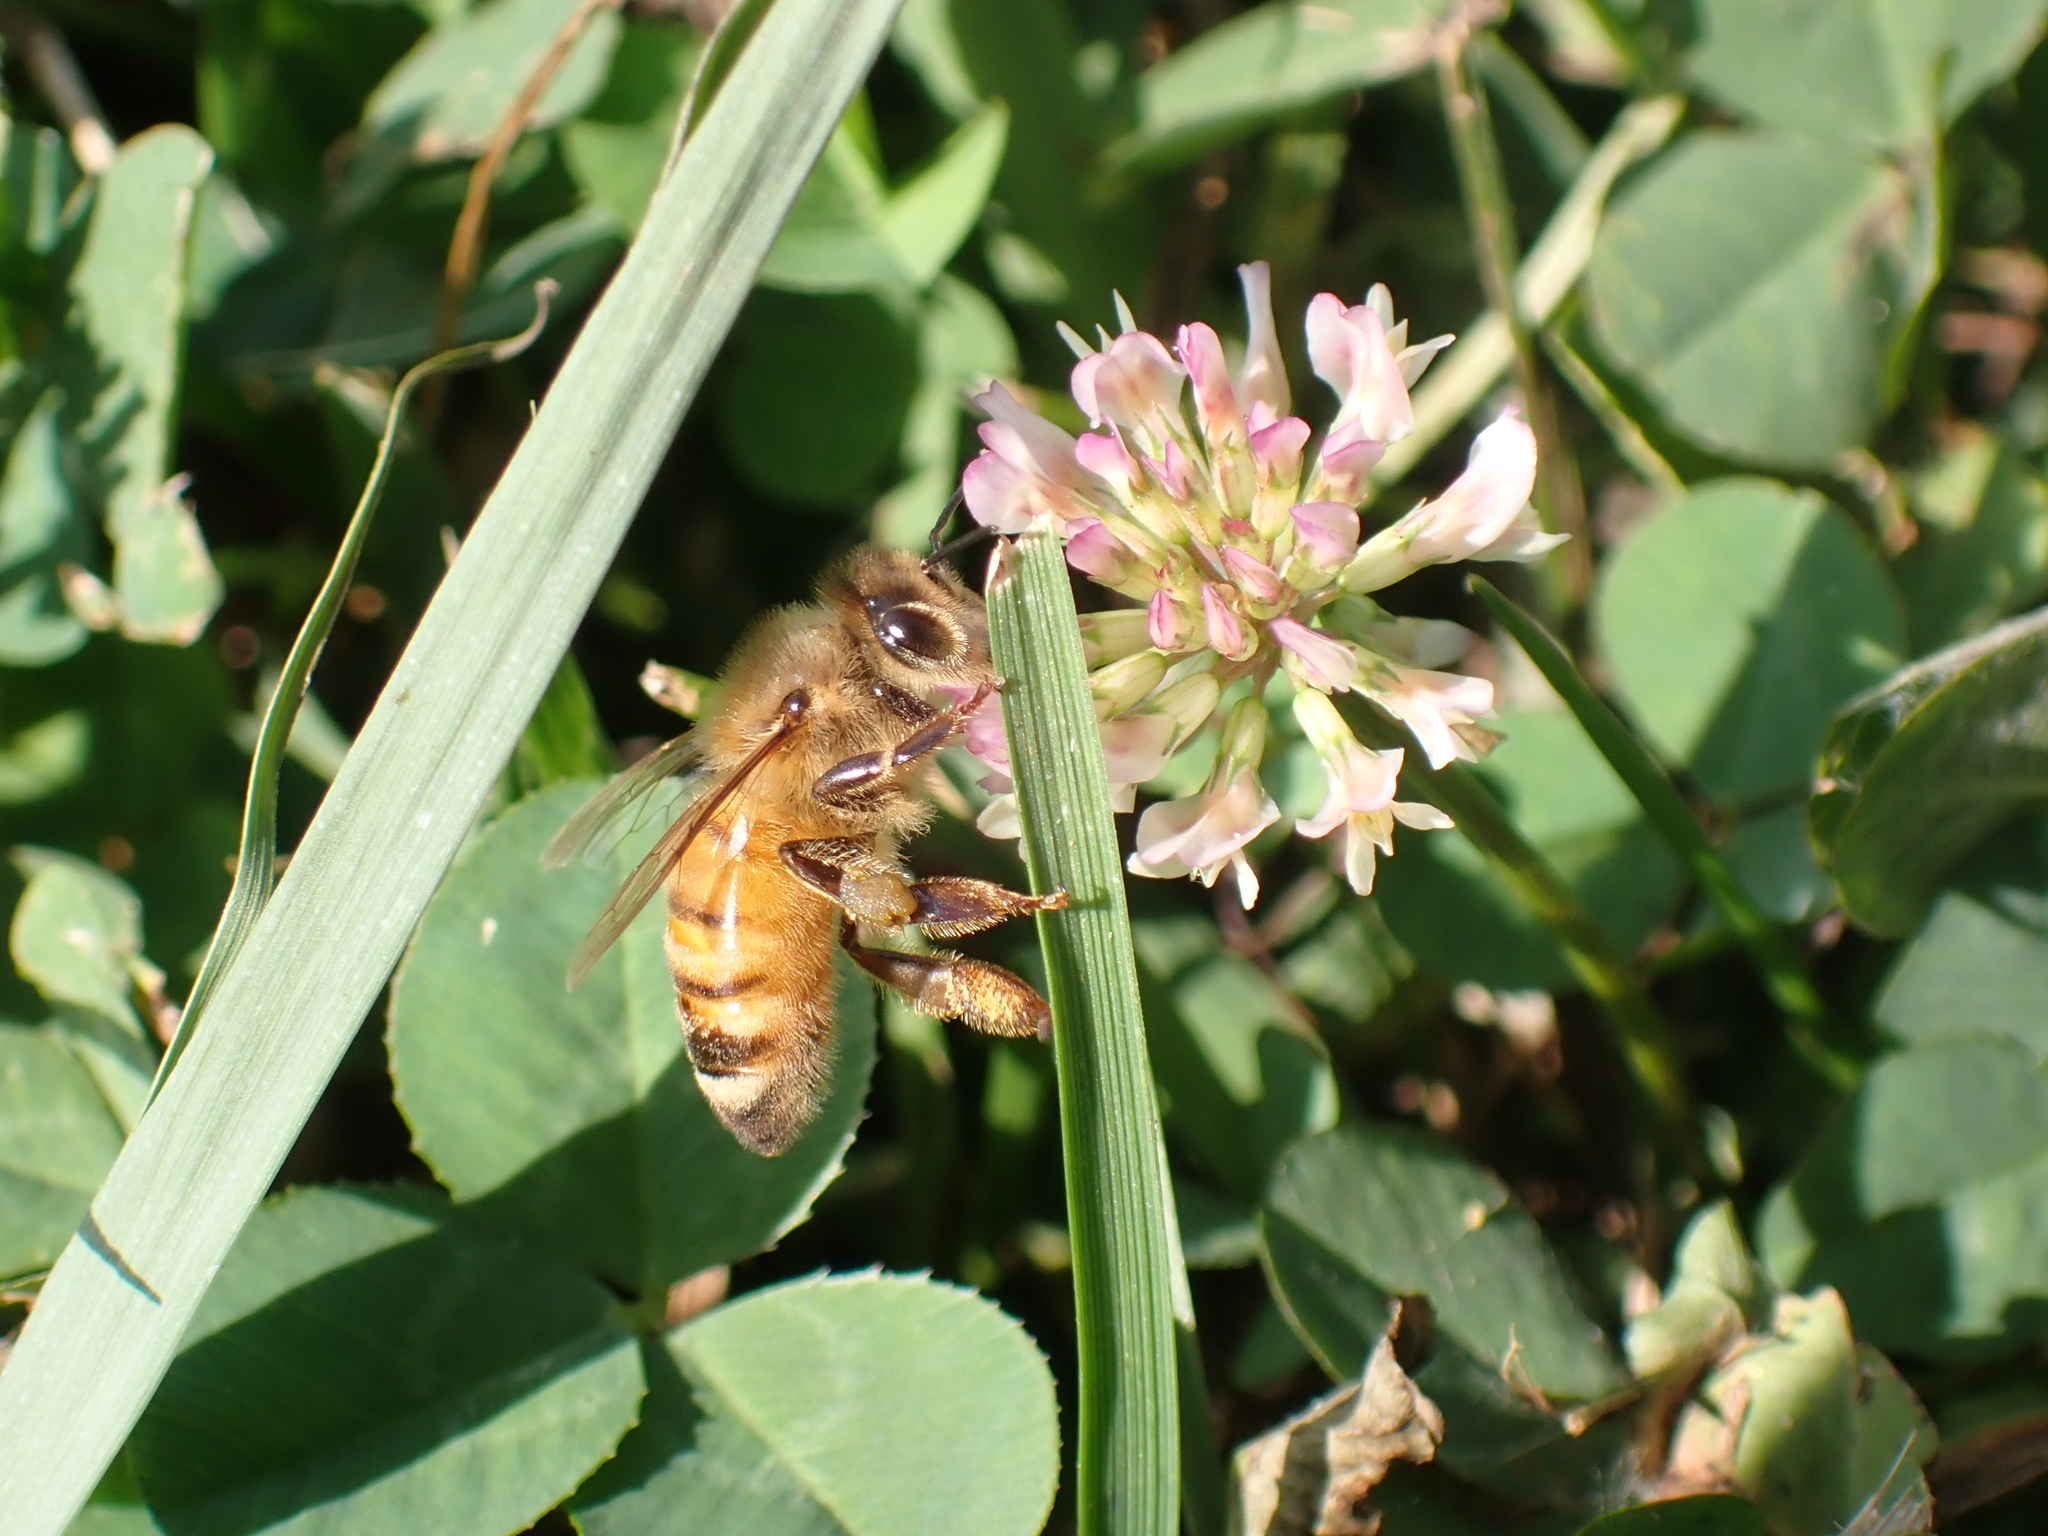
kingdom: Animalia
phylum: Arthropoda
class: Insecta
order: Hymenoptera
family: Apidae
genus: Apis
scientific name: Apis mellifera
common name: Honey bee
